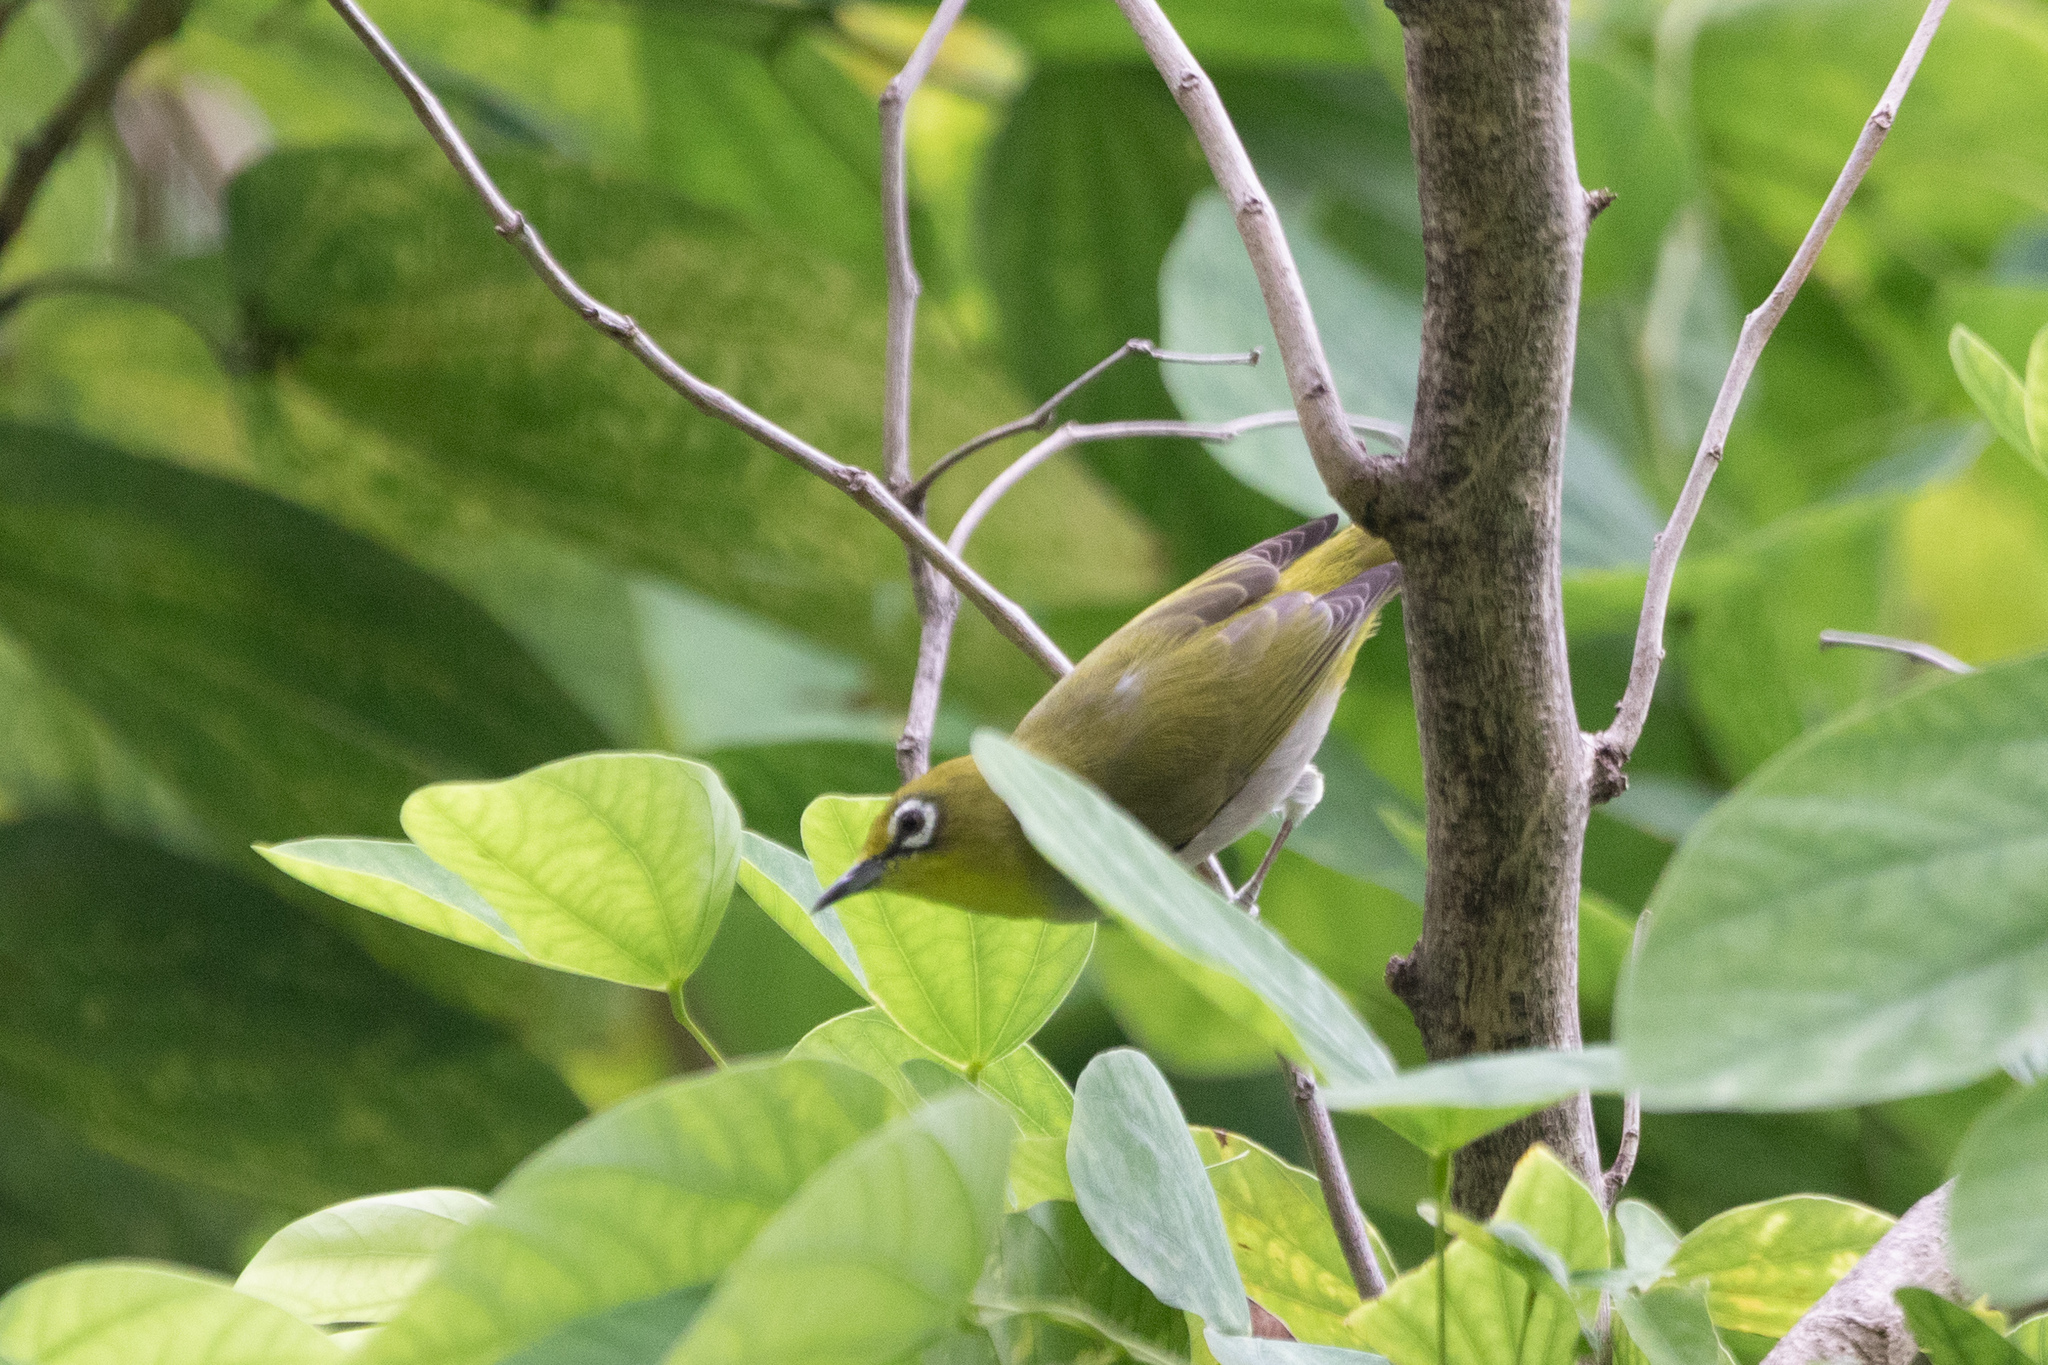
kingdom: Animalia
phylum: Chordata
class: Aves
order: Passeriformes
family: Zosteropidae
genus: Zosterops
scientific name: Zosterops simplex
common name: Swinhoe's white-eye
